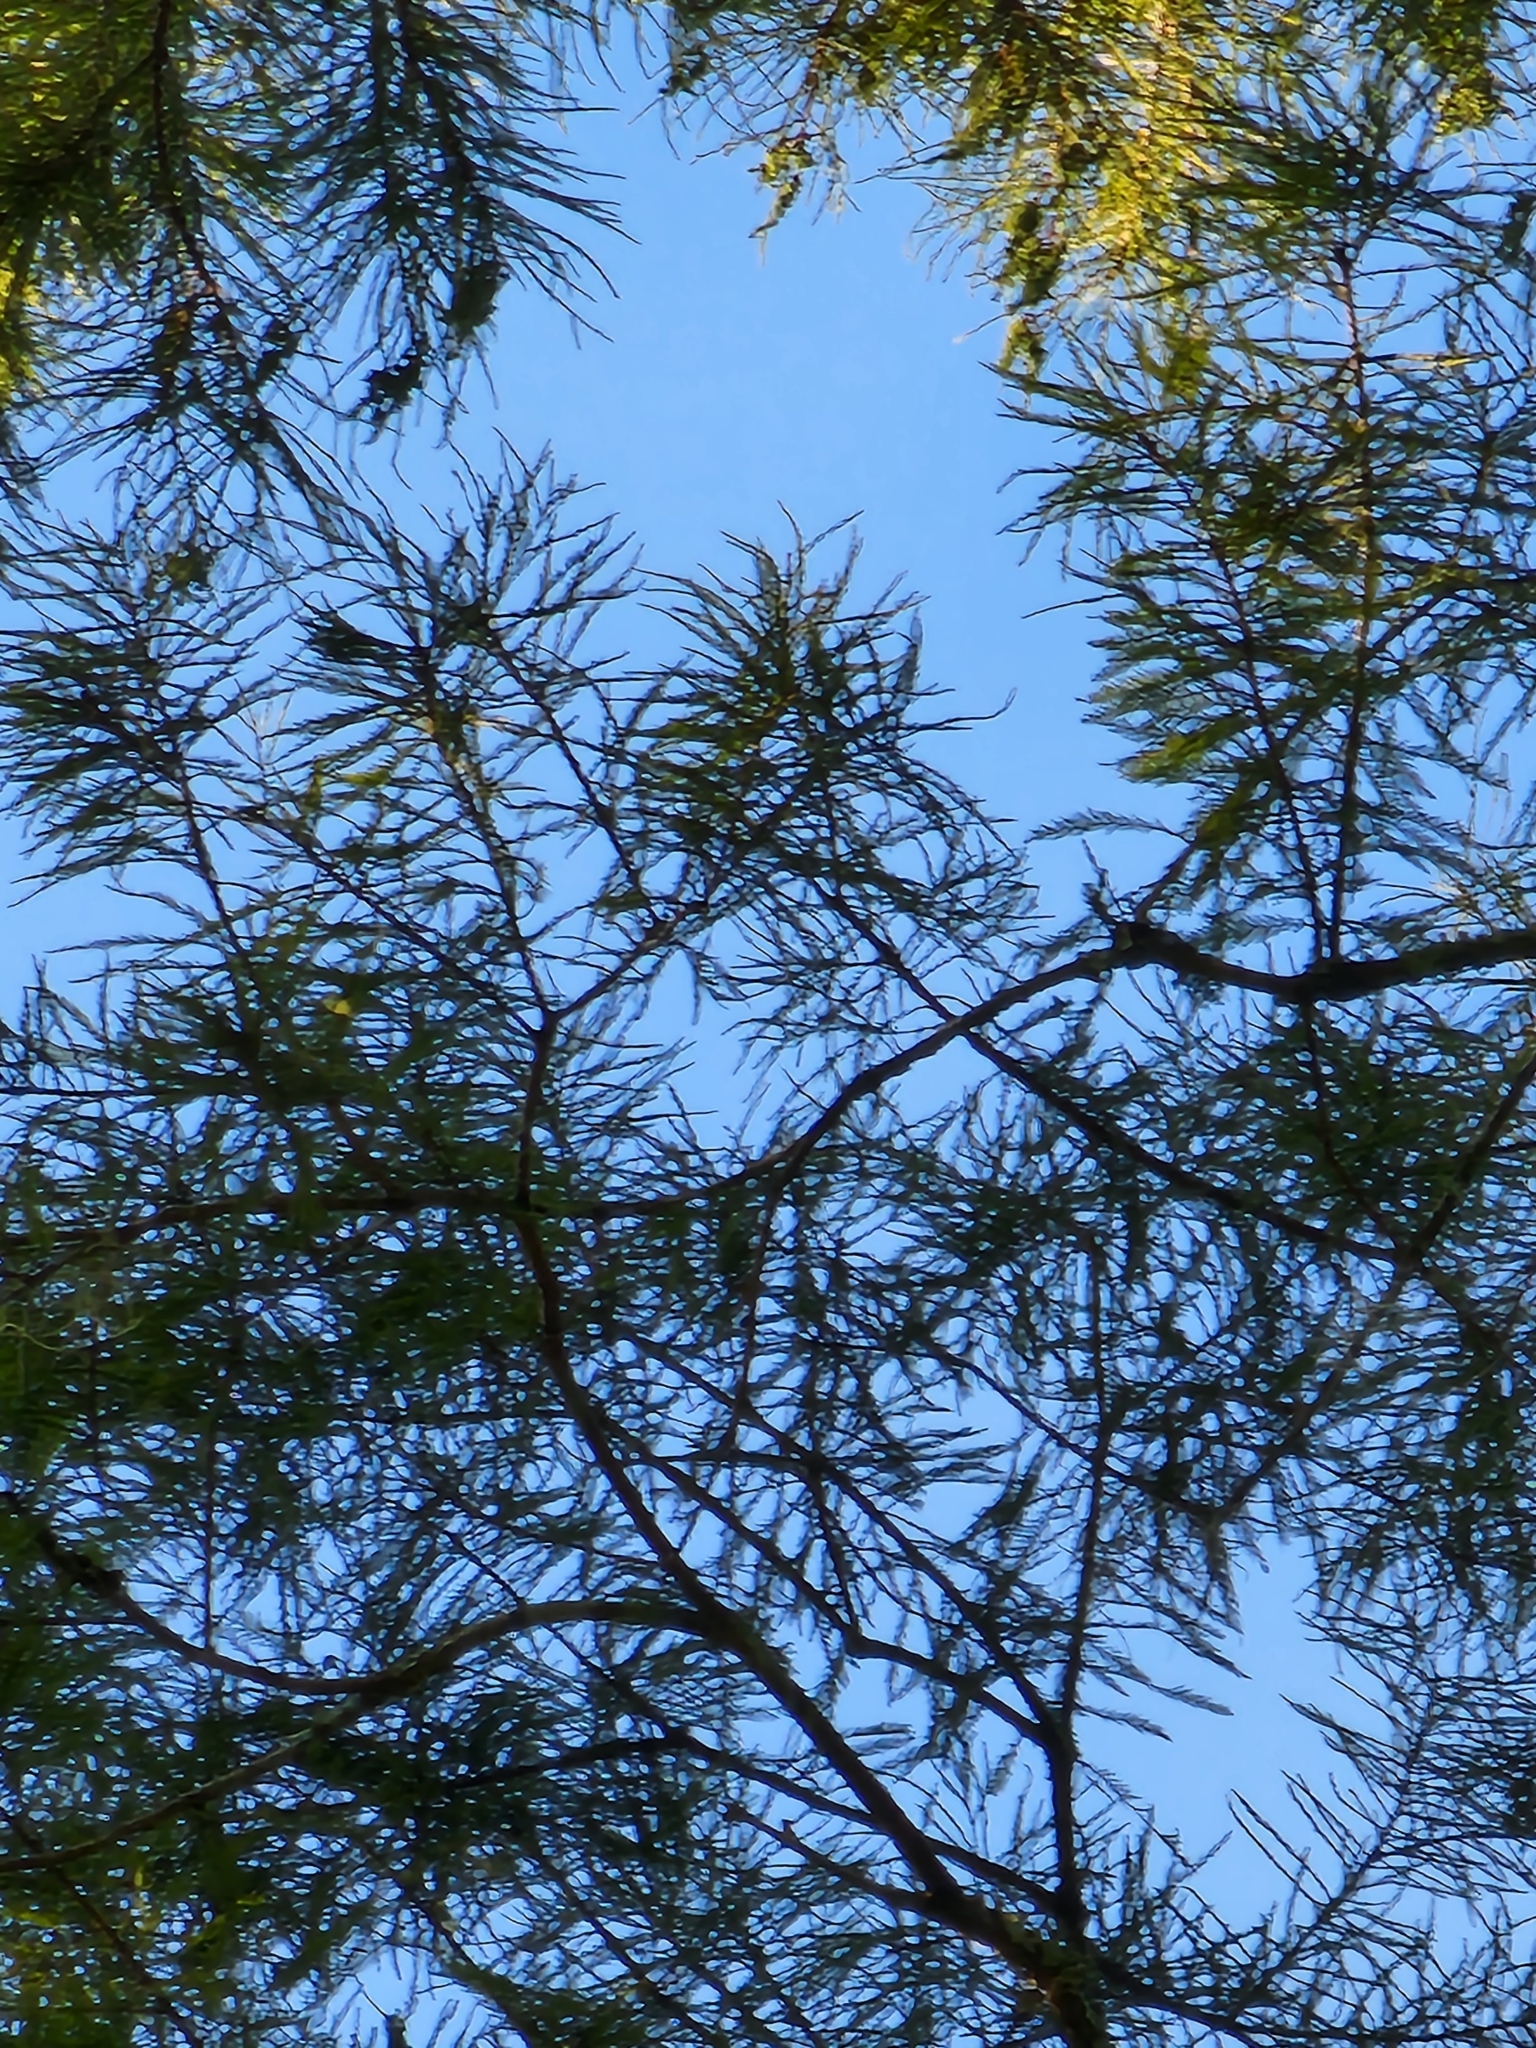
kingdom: Plantae
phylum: Tracheophyta
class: Pinopsida
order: Pinales
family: Cupressaceae
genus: Taxodium
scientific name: Taxodium distichum
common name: Bald cypress
